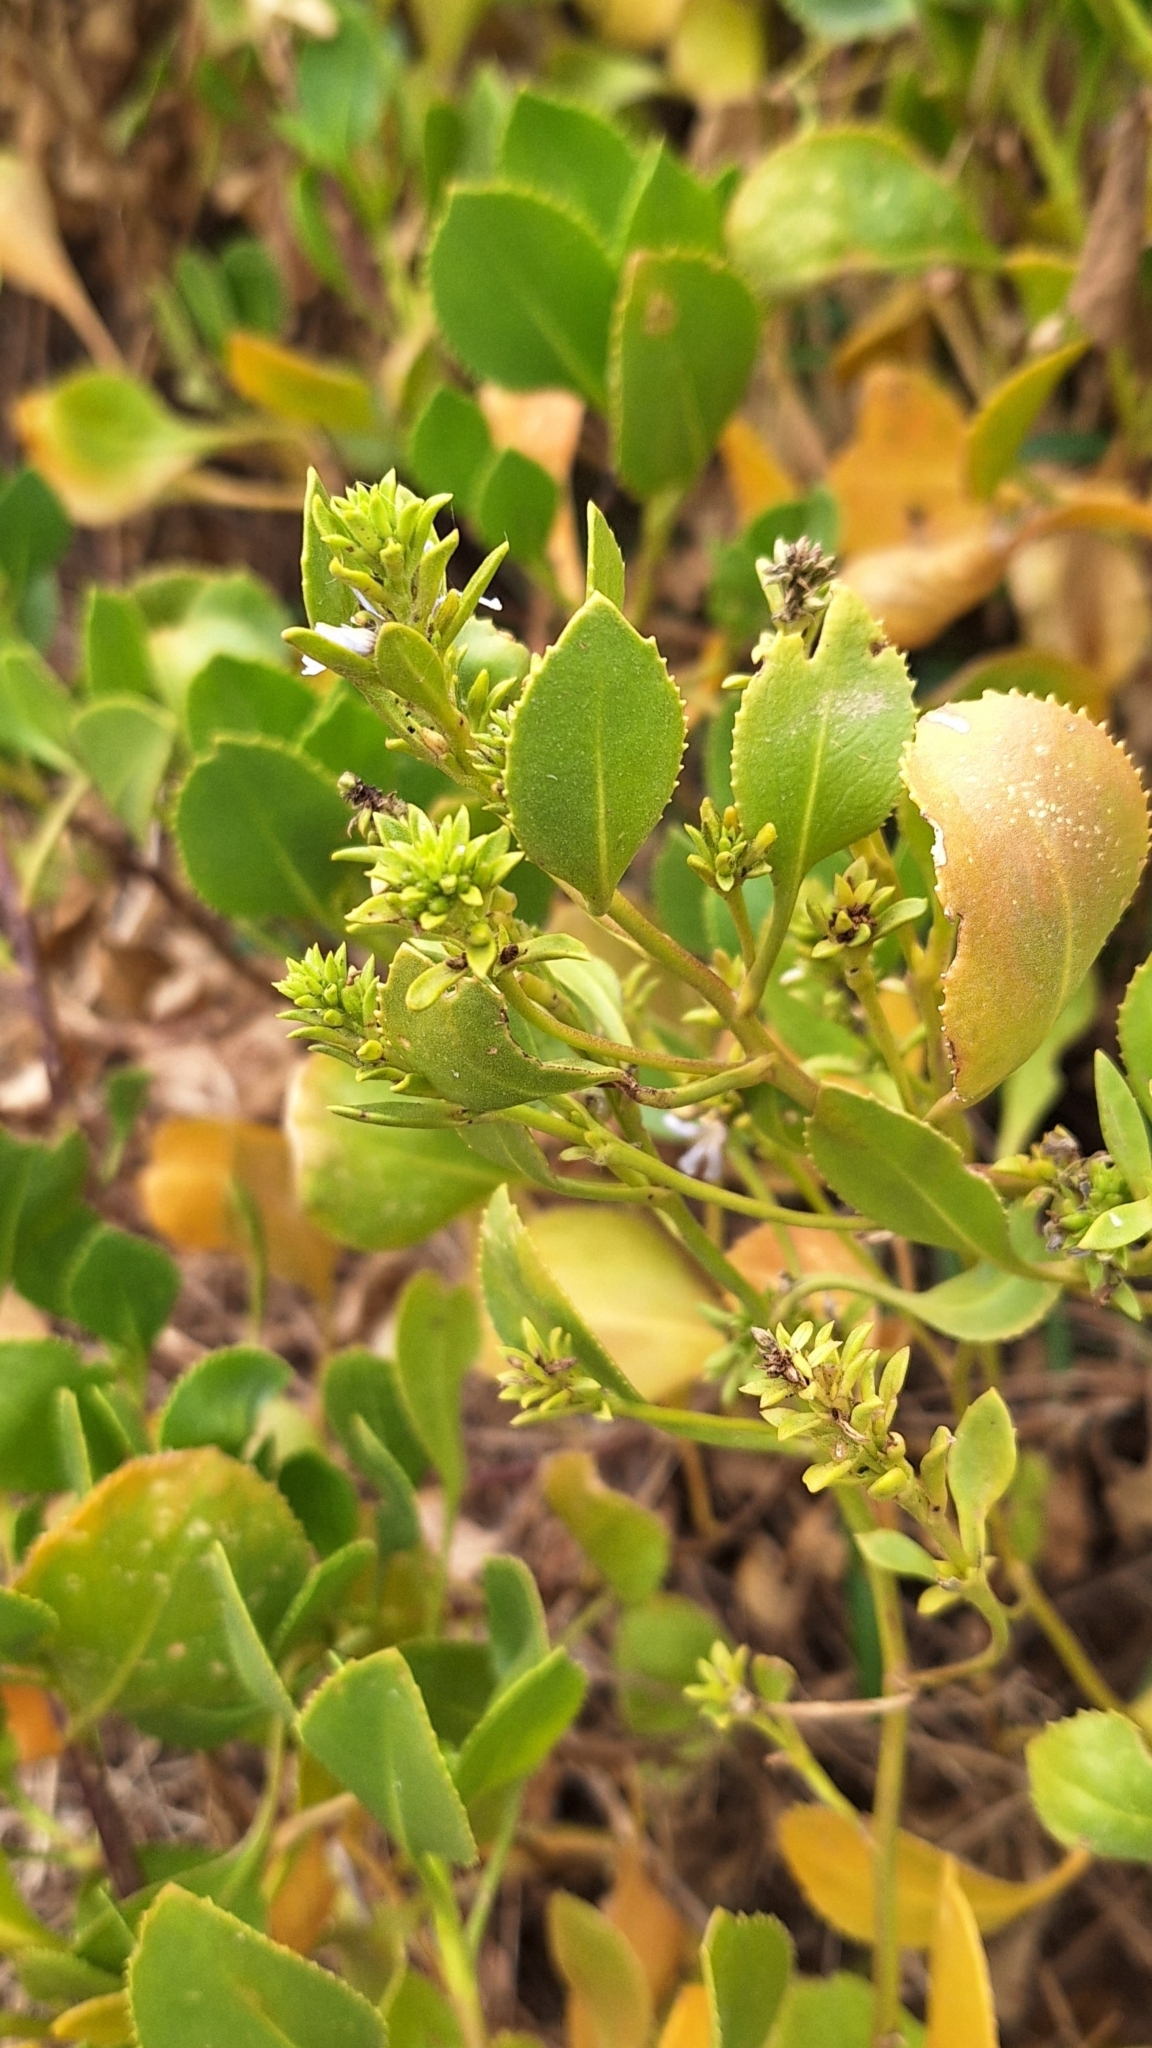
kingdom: Plantae
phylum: Tracheophyta
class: Magnoliopsida
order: Asterales
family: Goodeniaceae
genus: Scaevola
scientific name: Scaevola crassifolia
